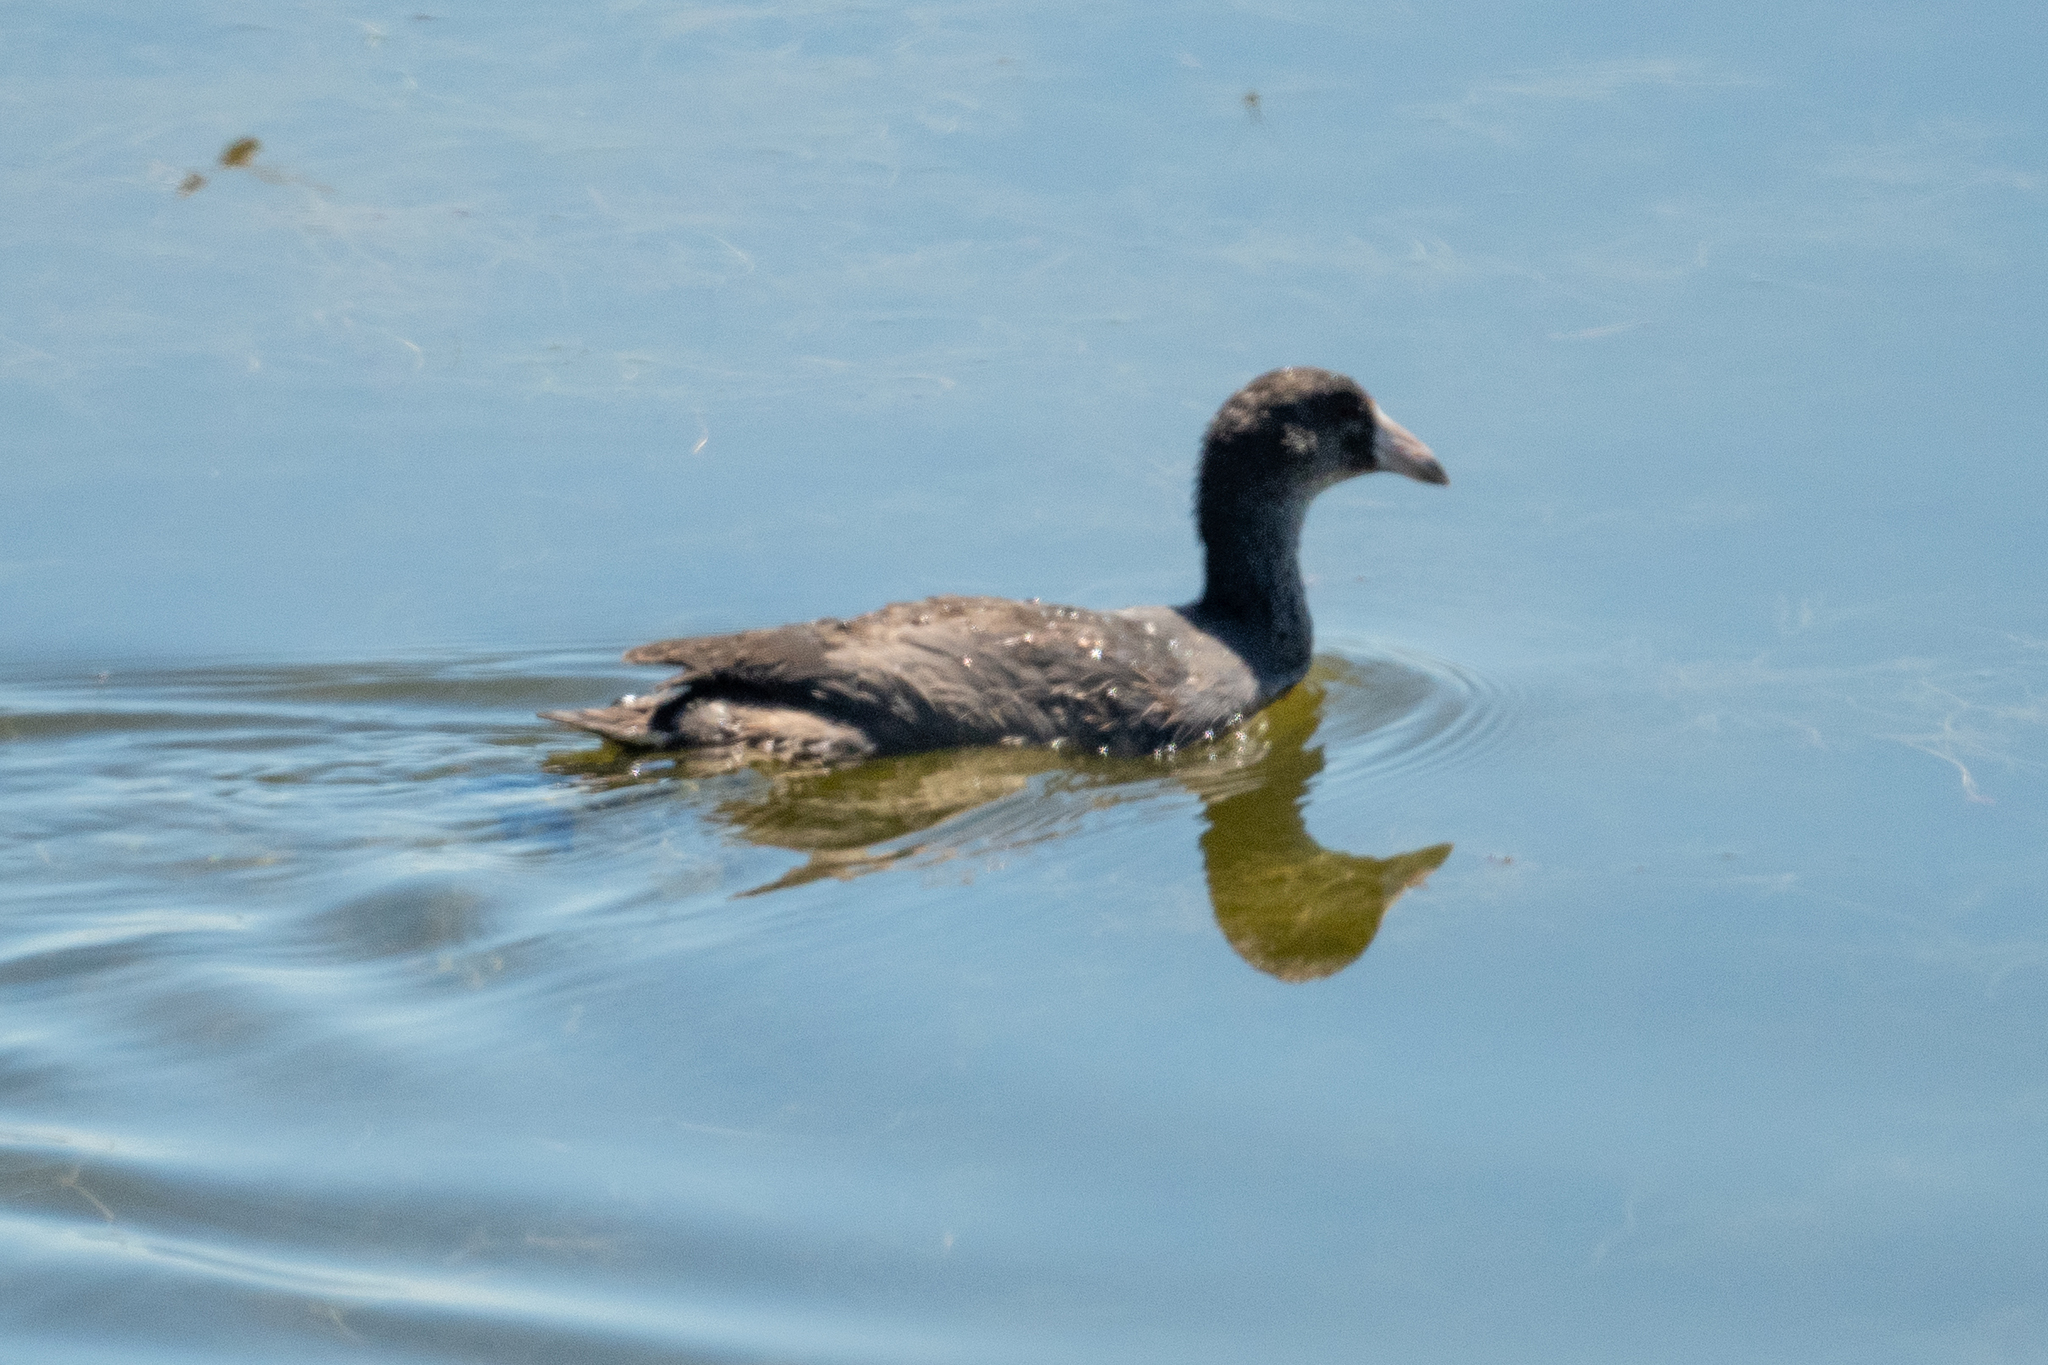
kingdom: Animalia
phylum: Chordata
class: Aves
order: Gruiformes
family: Rallidae
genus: Fulica
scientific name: Fulica americana
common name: American coot
